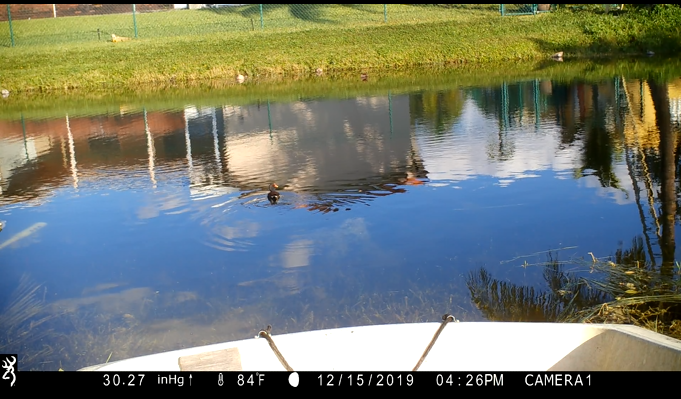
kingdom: Animalia
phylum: Chordata
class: Aves
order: Gruiformes
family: Rallidae
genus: Gallinula
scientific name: Gallinula chloropus
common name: Common moorhen
